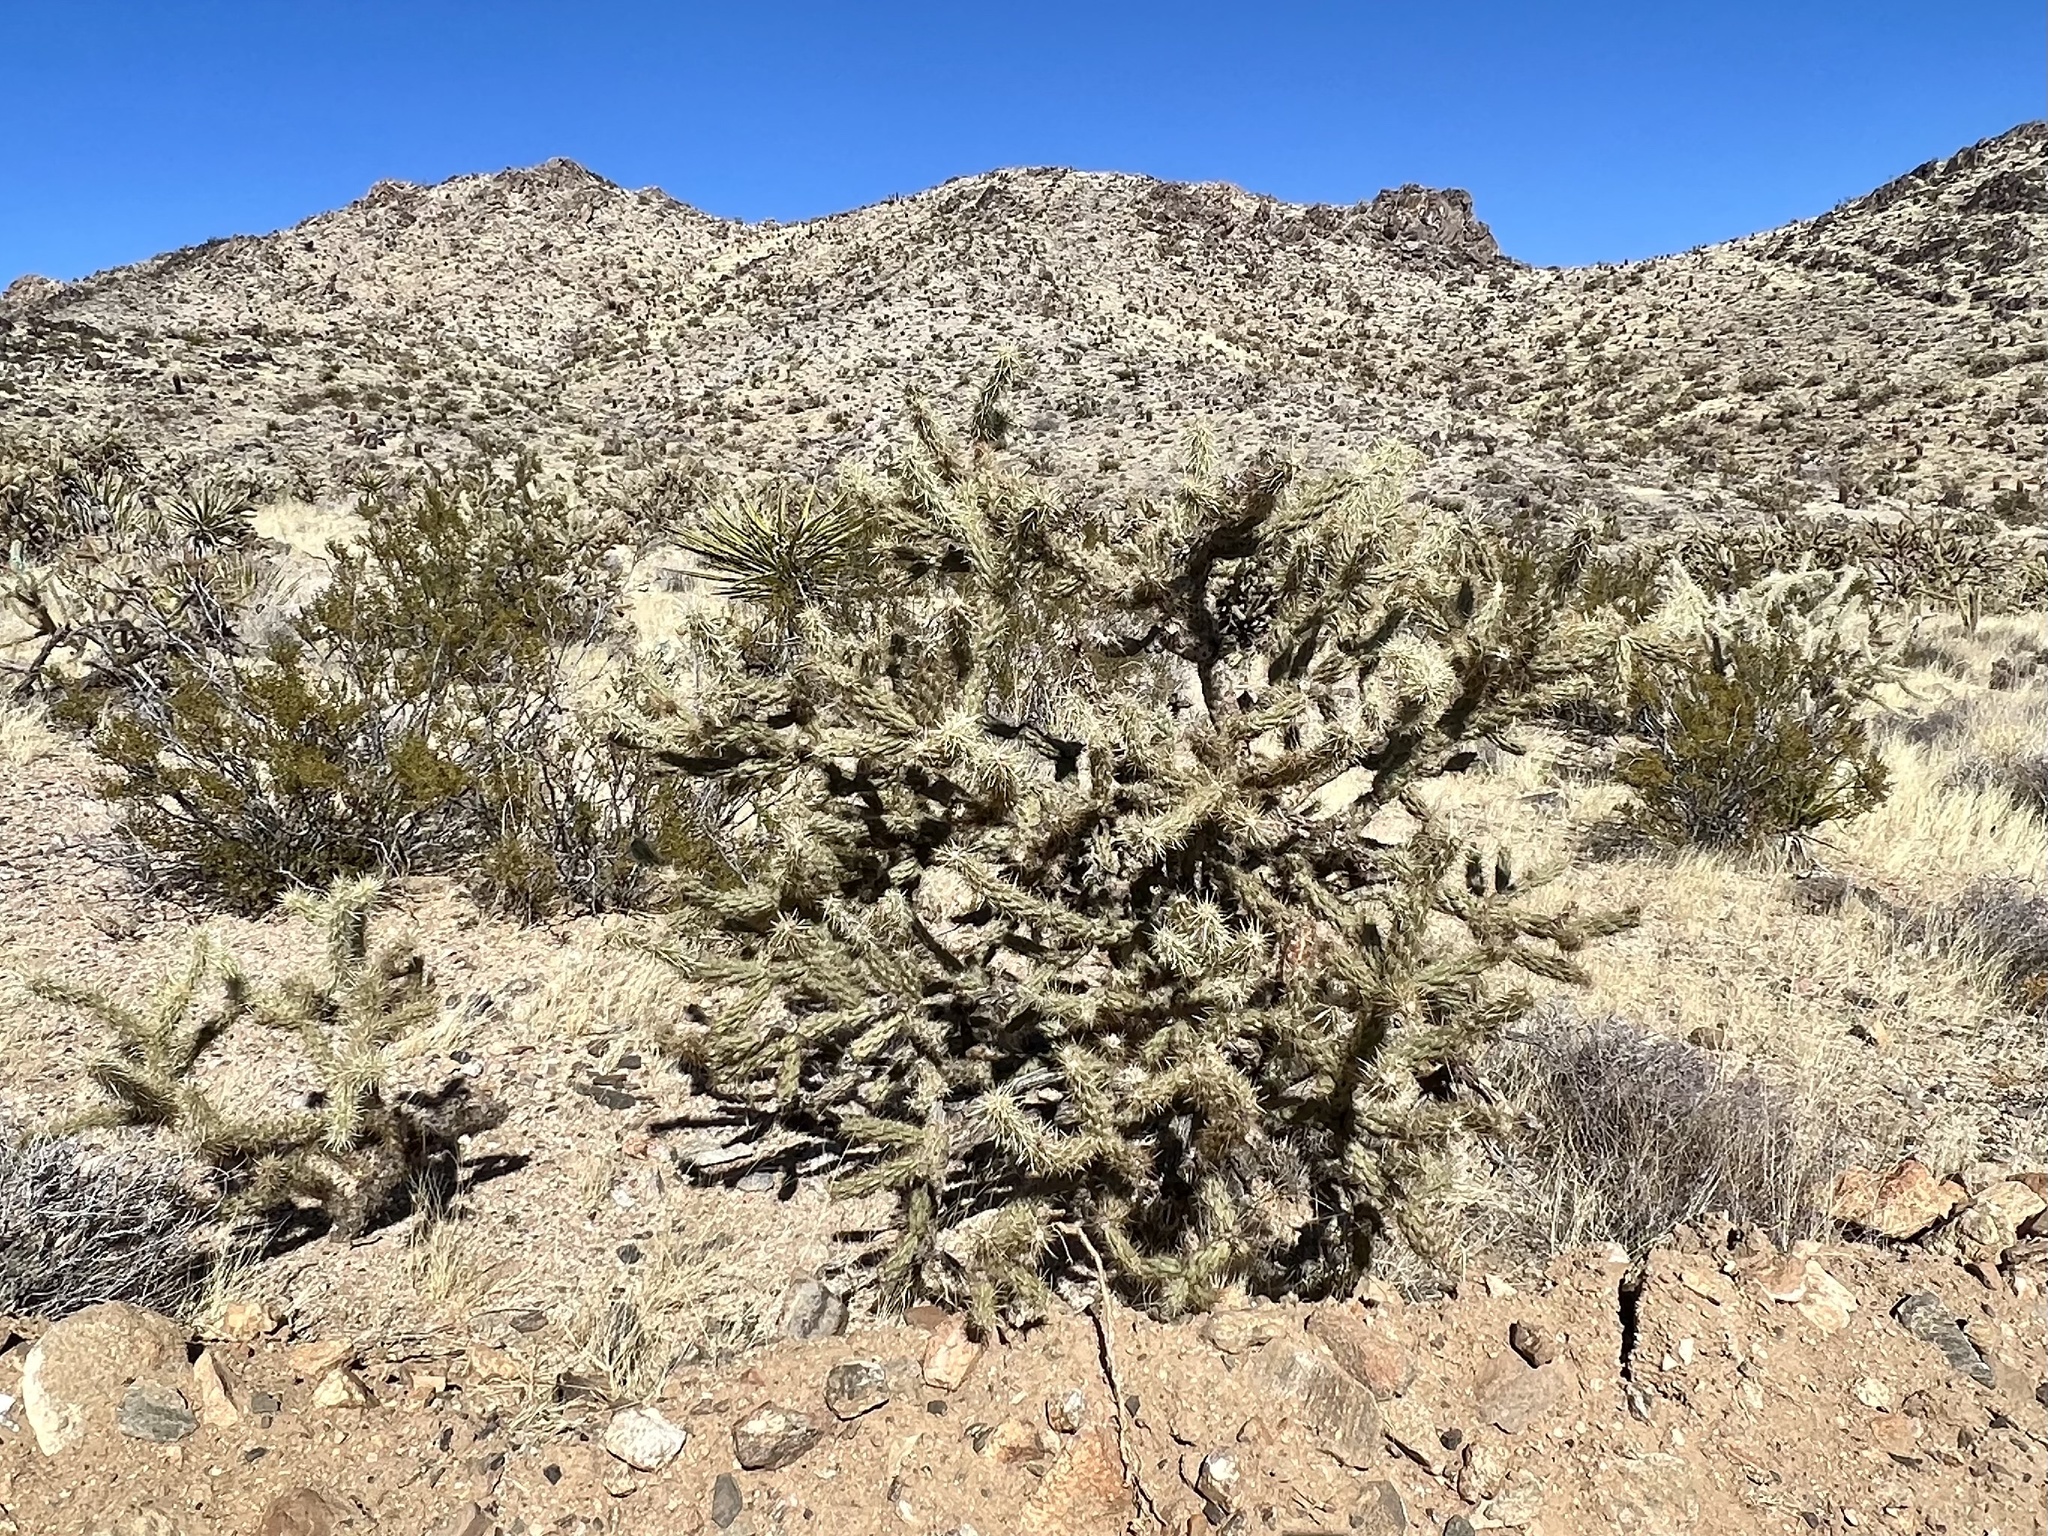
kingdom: Plantae
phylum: Tracheophyta
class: Magnoliopsida
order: Caryophyllales
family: Cactaceae
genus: Cylindropuntia
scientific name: Cylindropuntia acanthocarpa
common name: Buckhorn cholla
